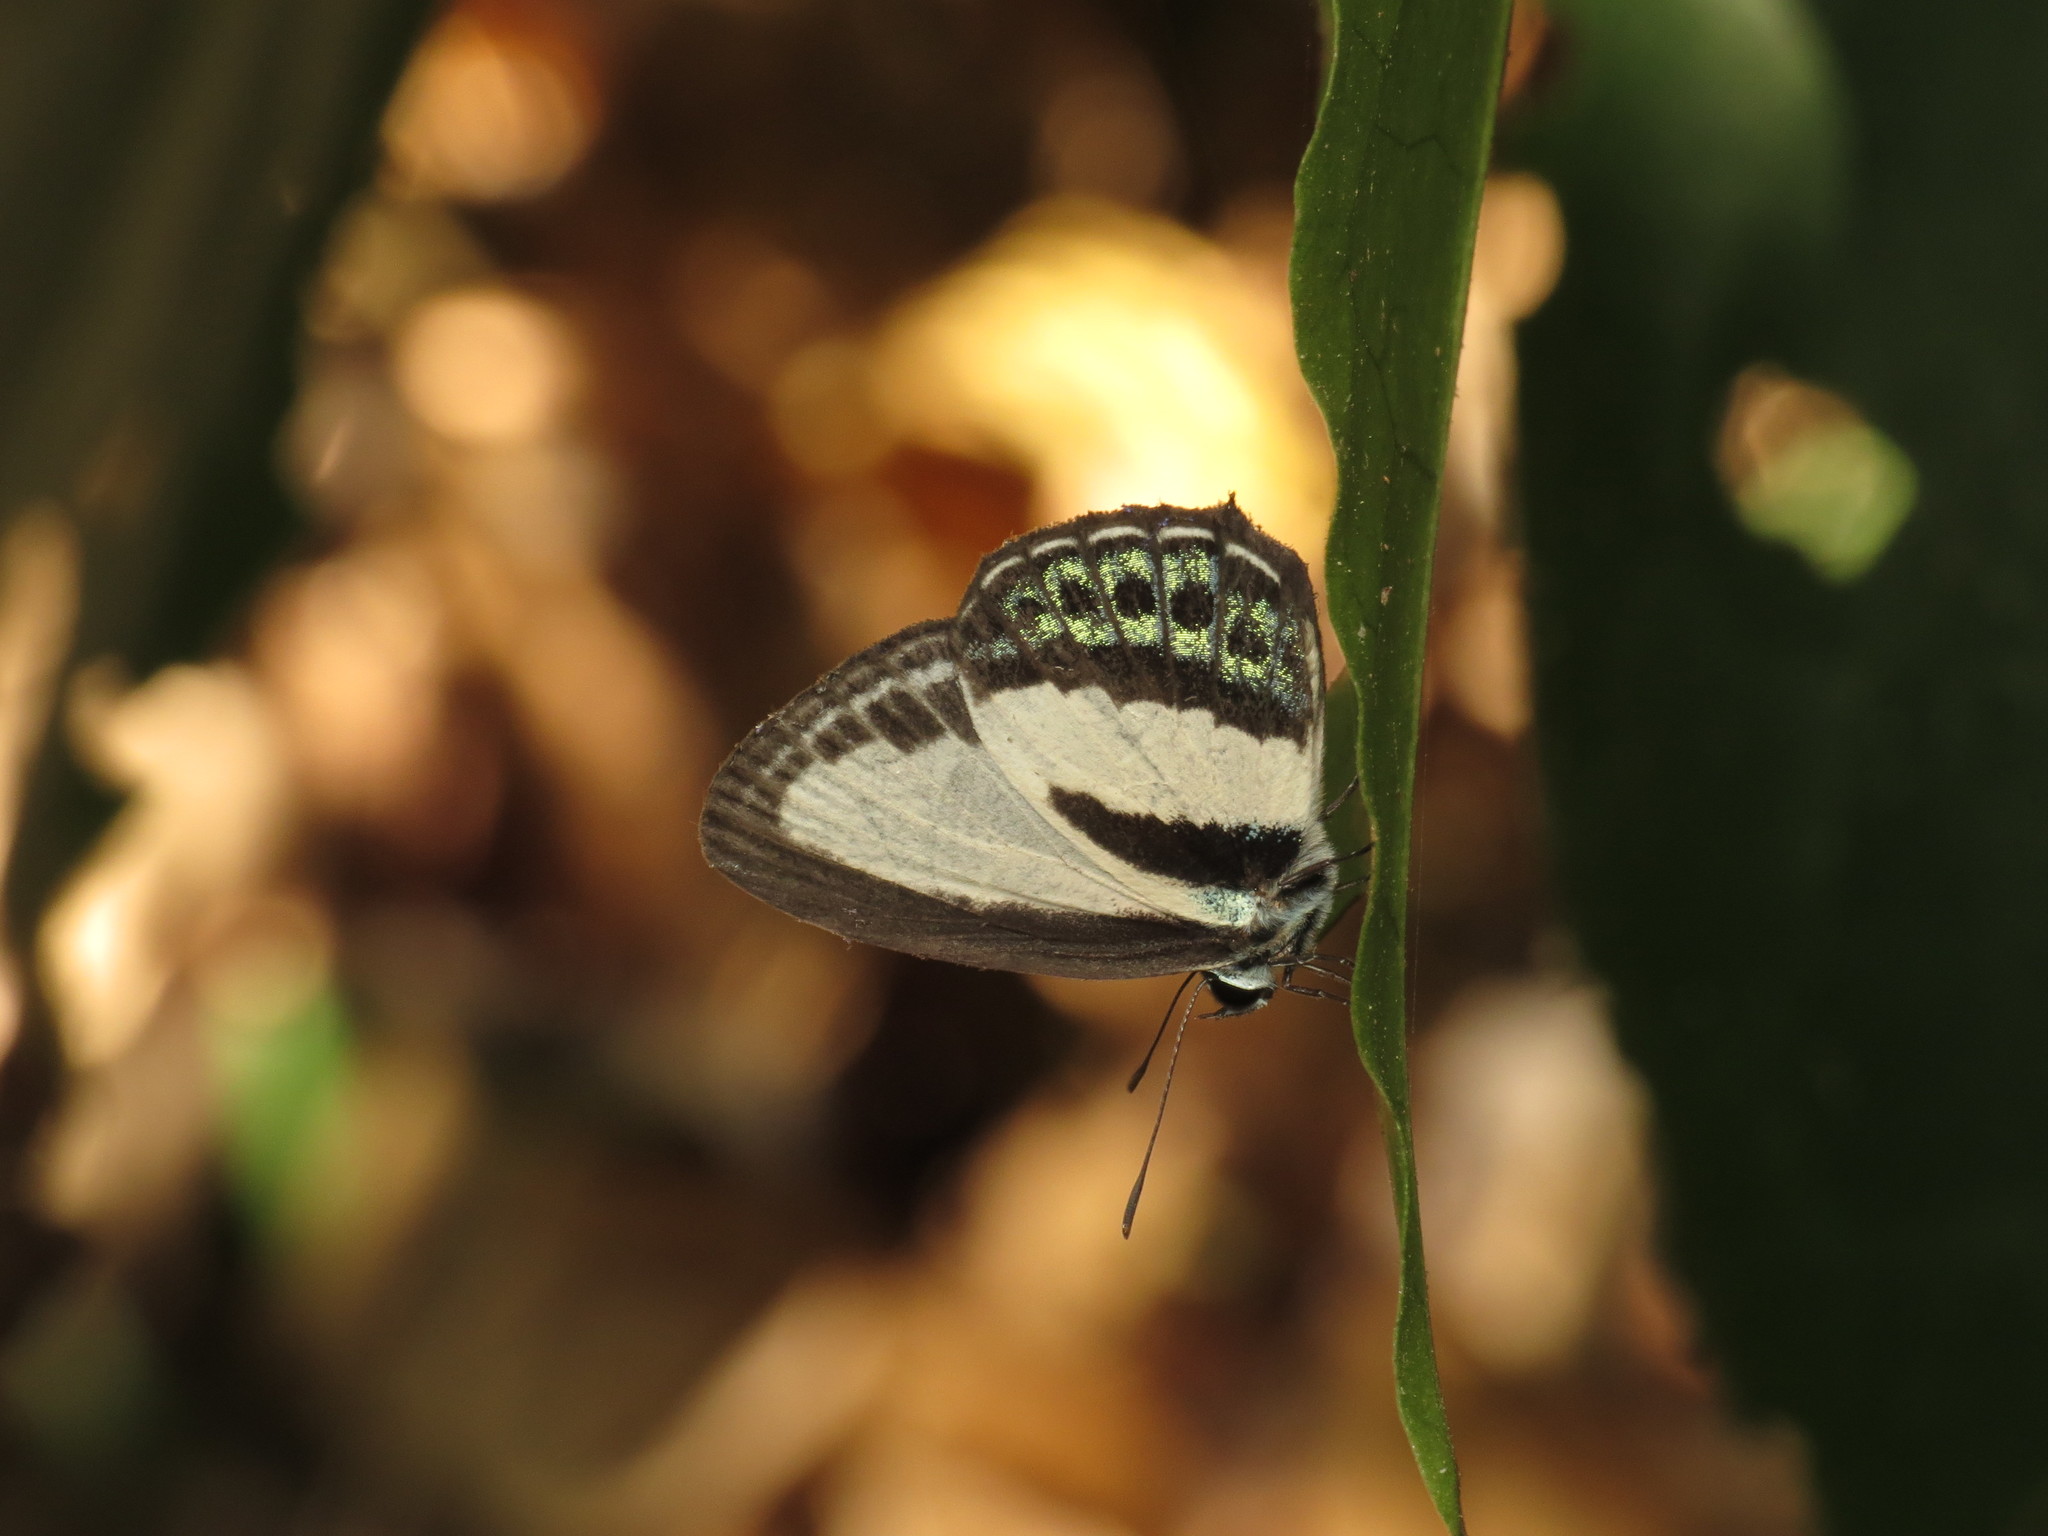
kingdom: Animalia
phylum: Arthropoda
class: Insecta
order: Lepidoptera
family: Lycaenidae
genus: Nacaduba
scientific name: Nacaduba cyanea
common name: Tailed green-banded line blue
